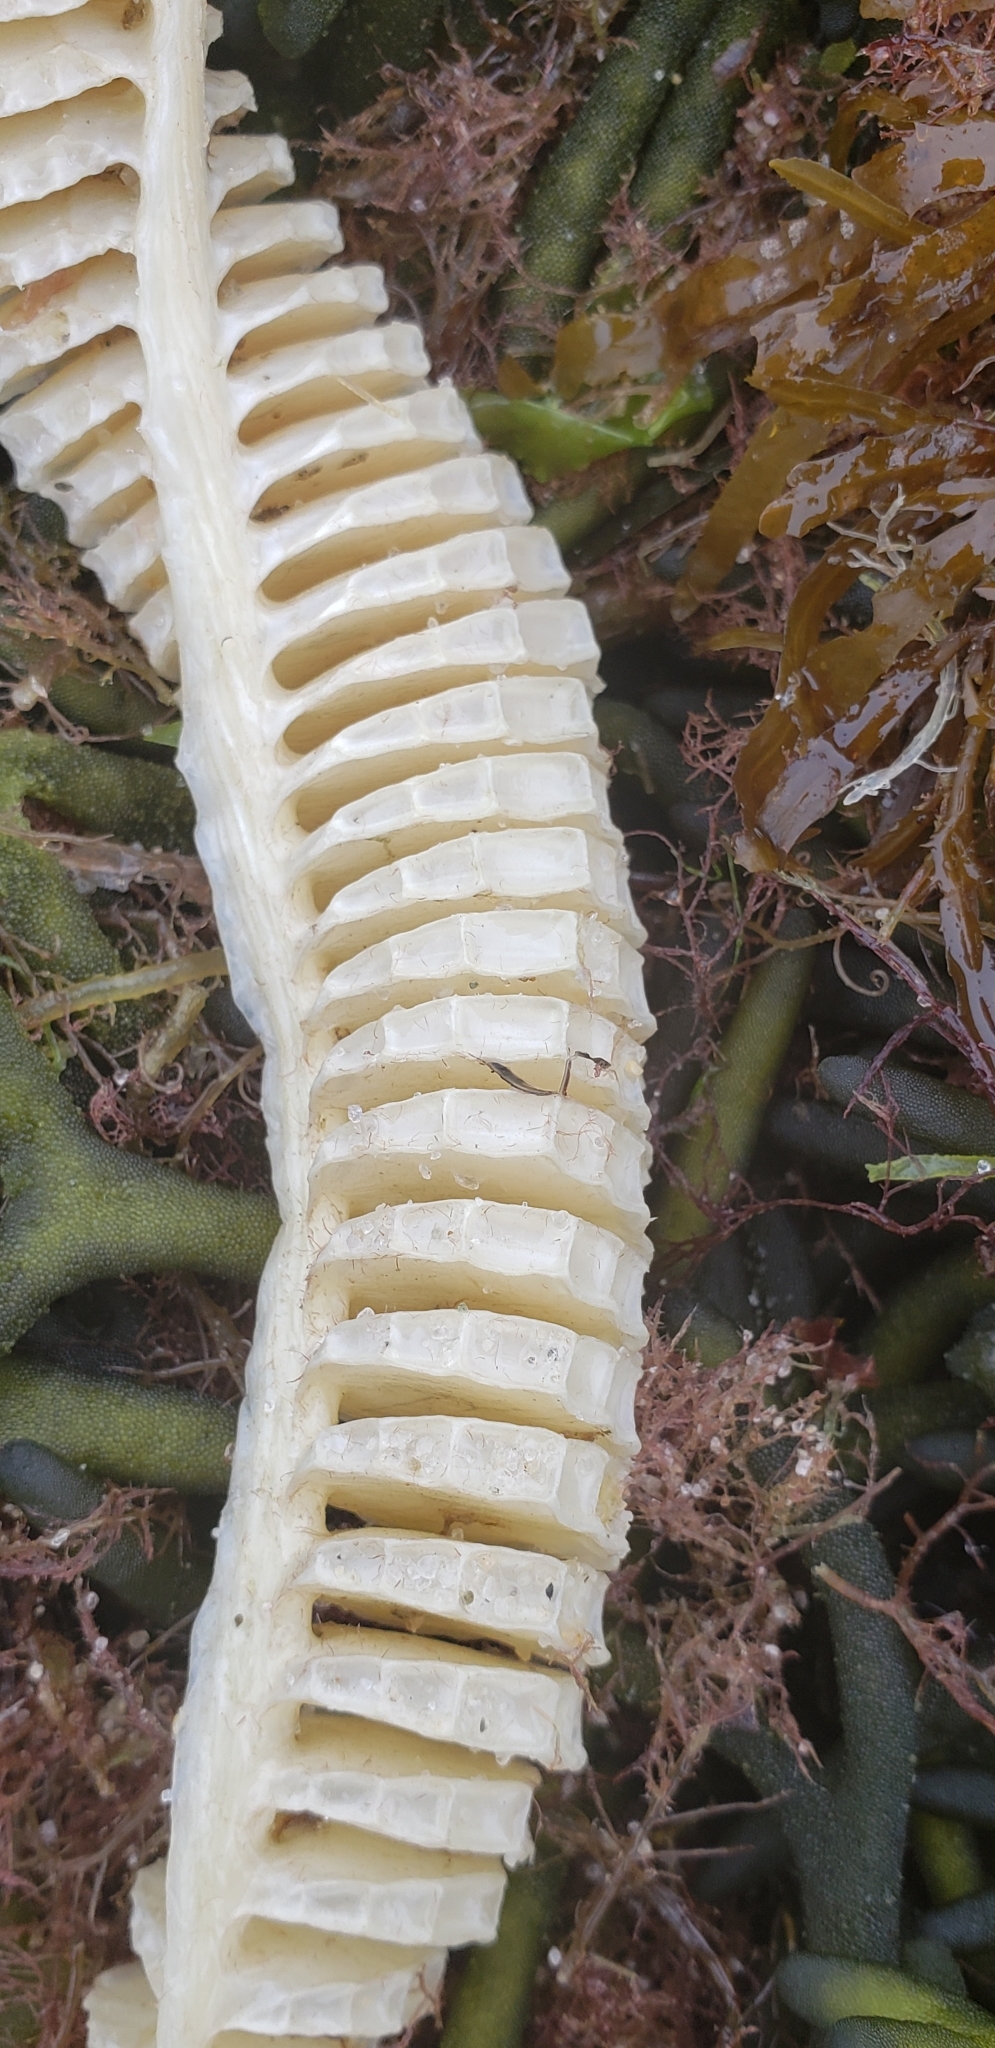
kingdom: Animalia
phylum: Mollusca
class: Gastropoda
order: Neogastropoda
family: Busyconidae
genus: Busycon
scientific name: Busycon carica
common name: Knobbed whelk
